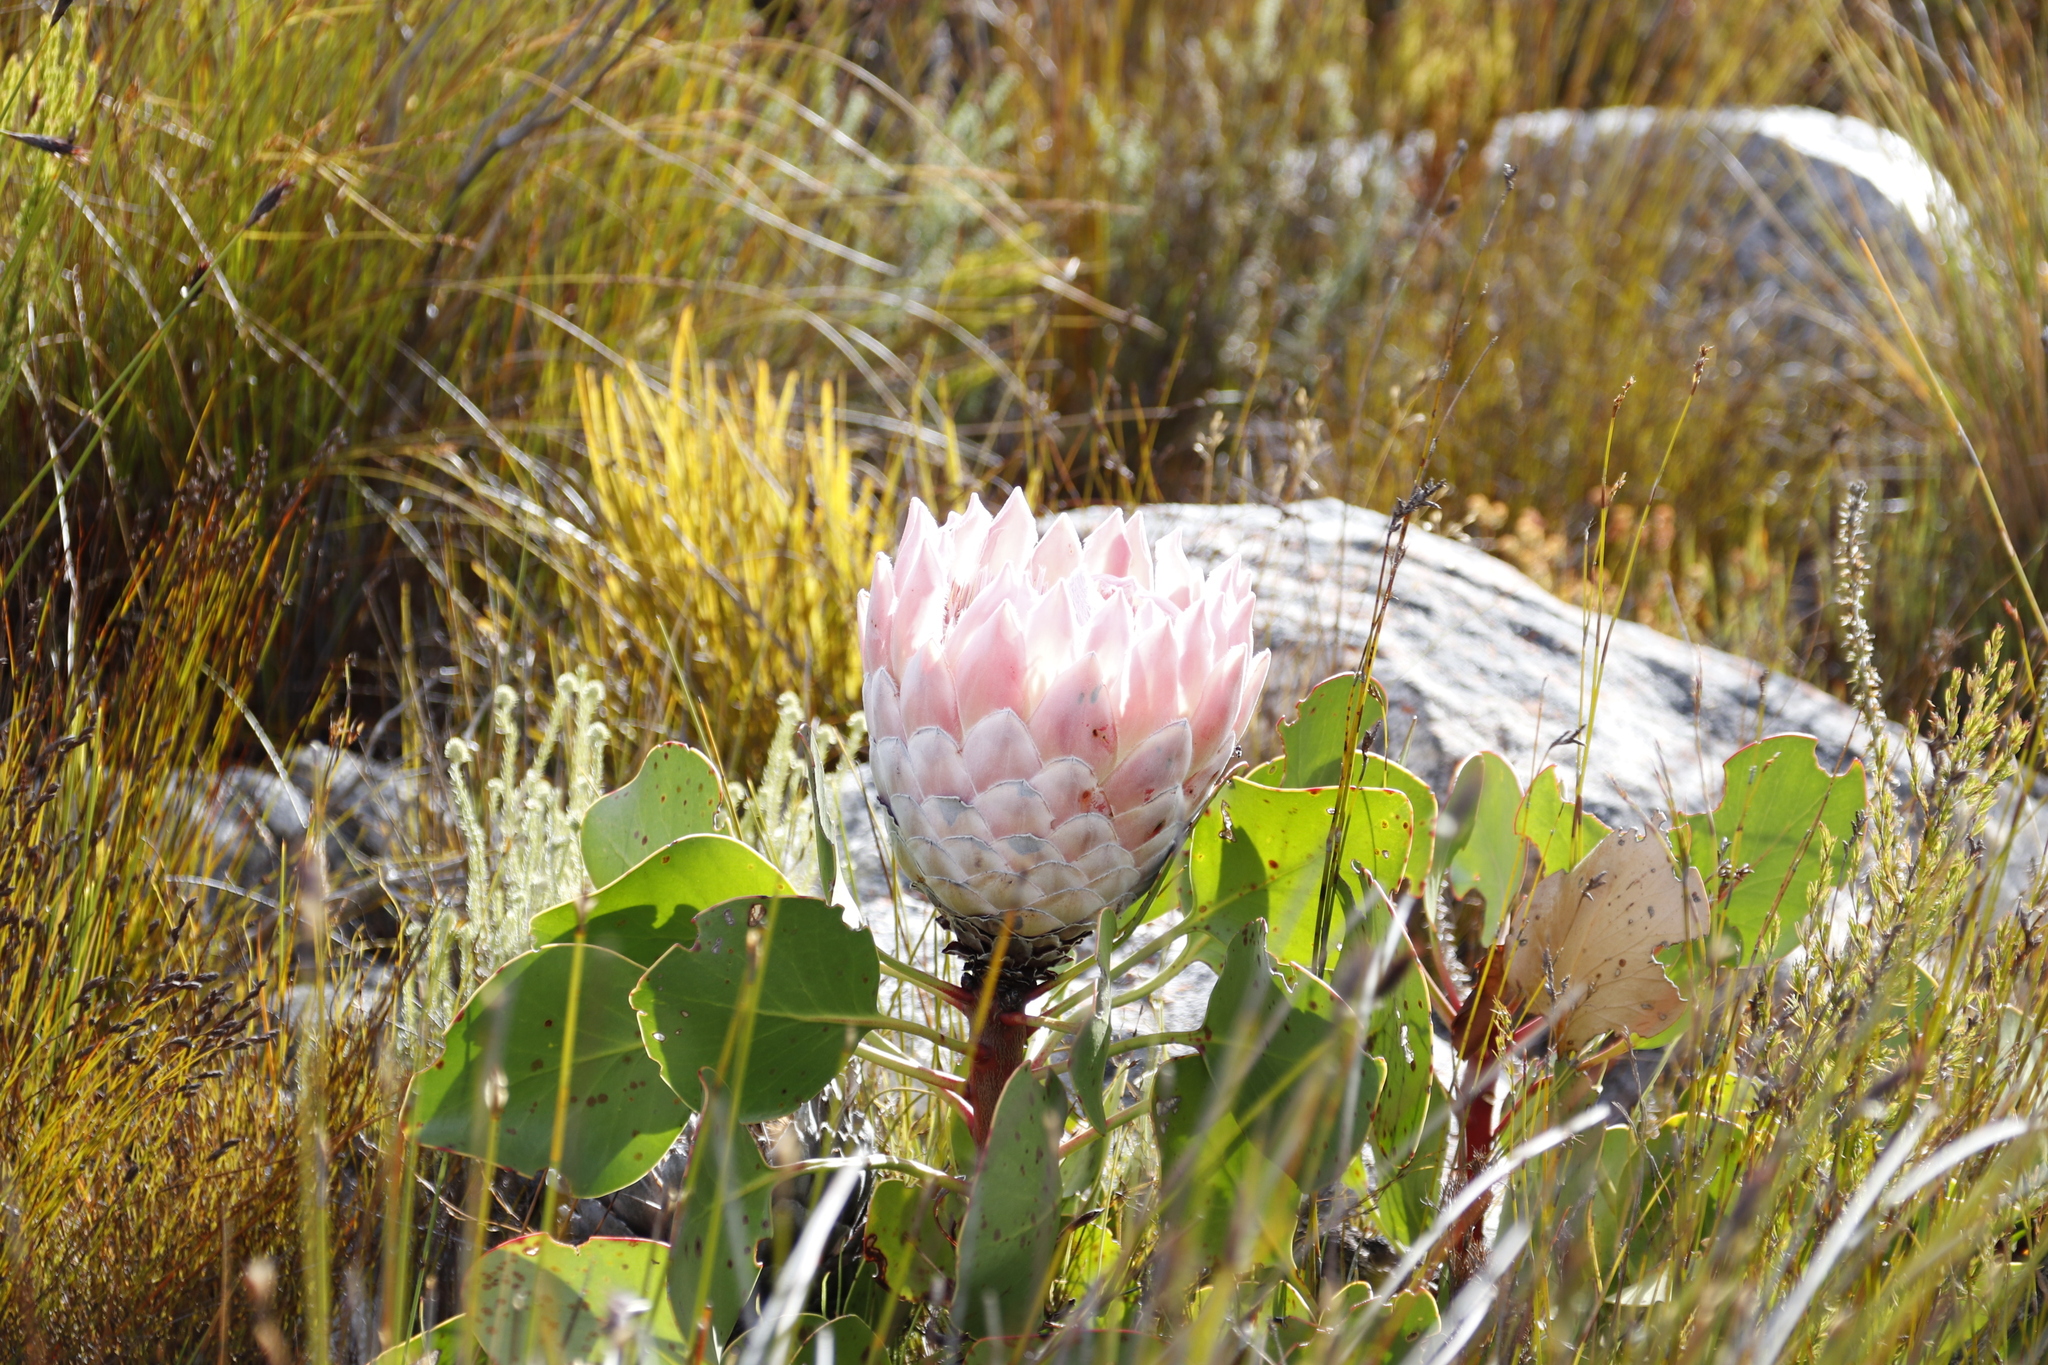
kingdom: Plantae
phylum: Tracheophyta
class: Magnoliopsida
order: Proteales
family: Proteaceae
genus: Protea
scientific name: Protea cynaroides
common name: King protea
